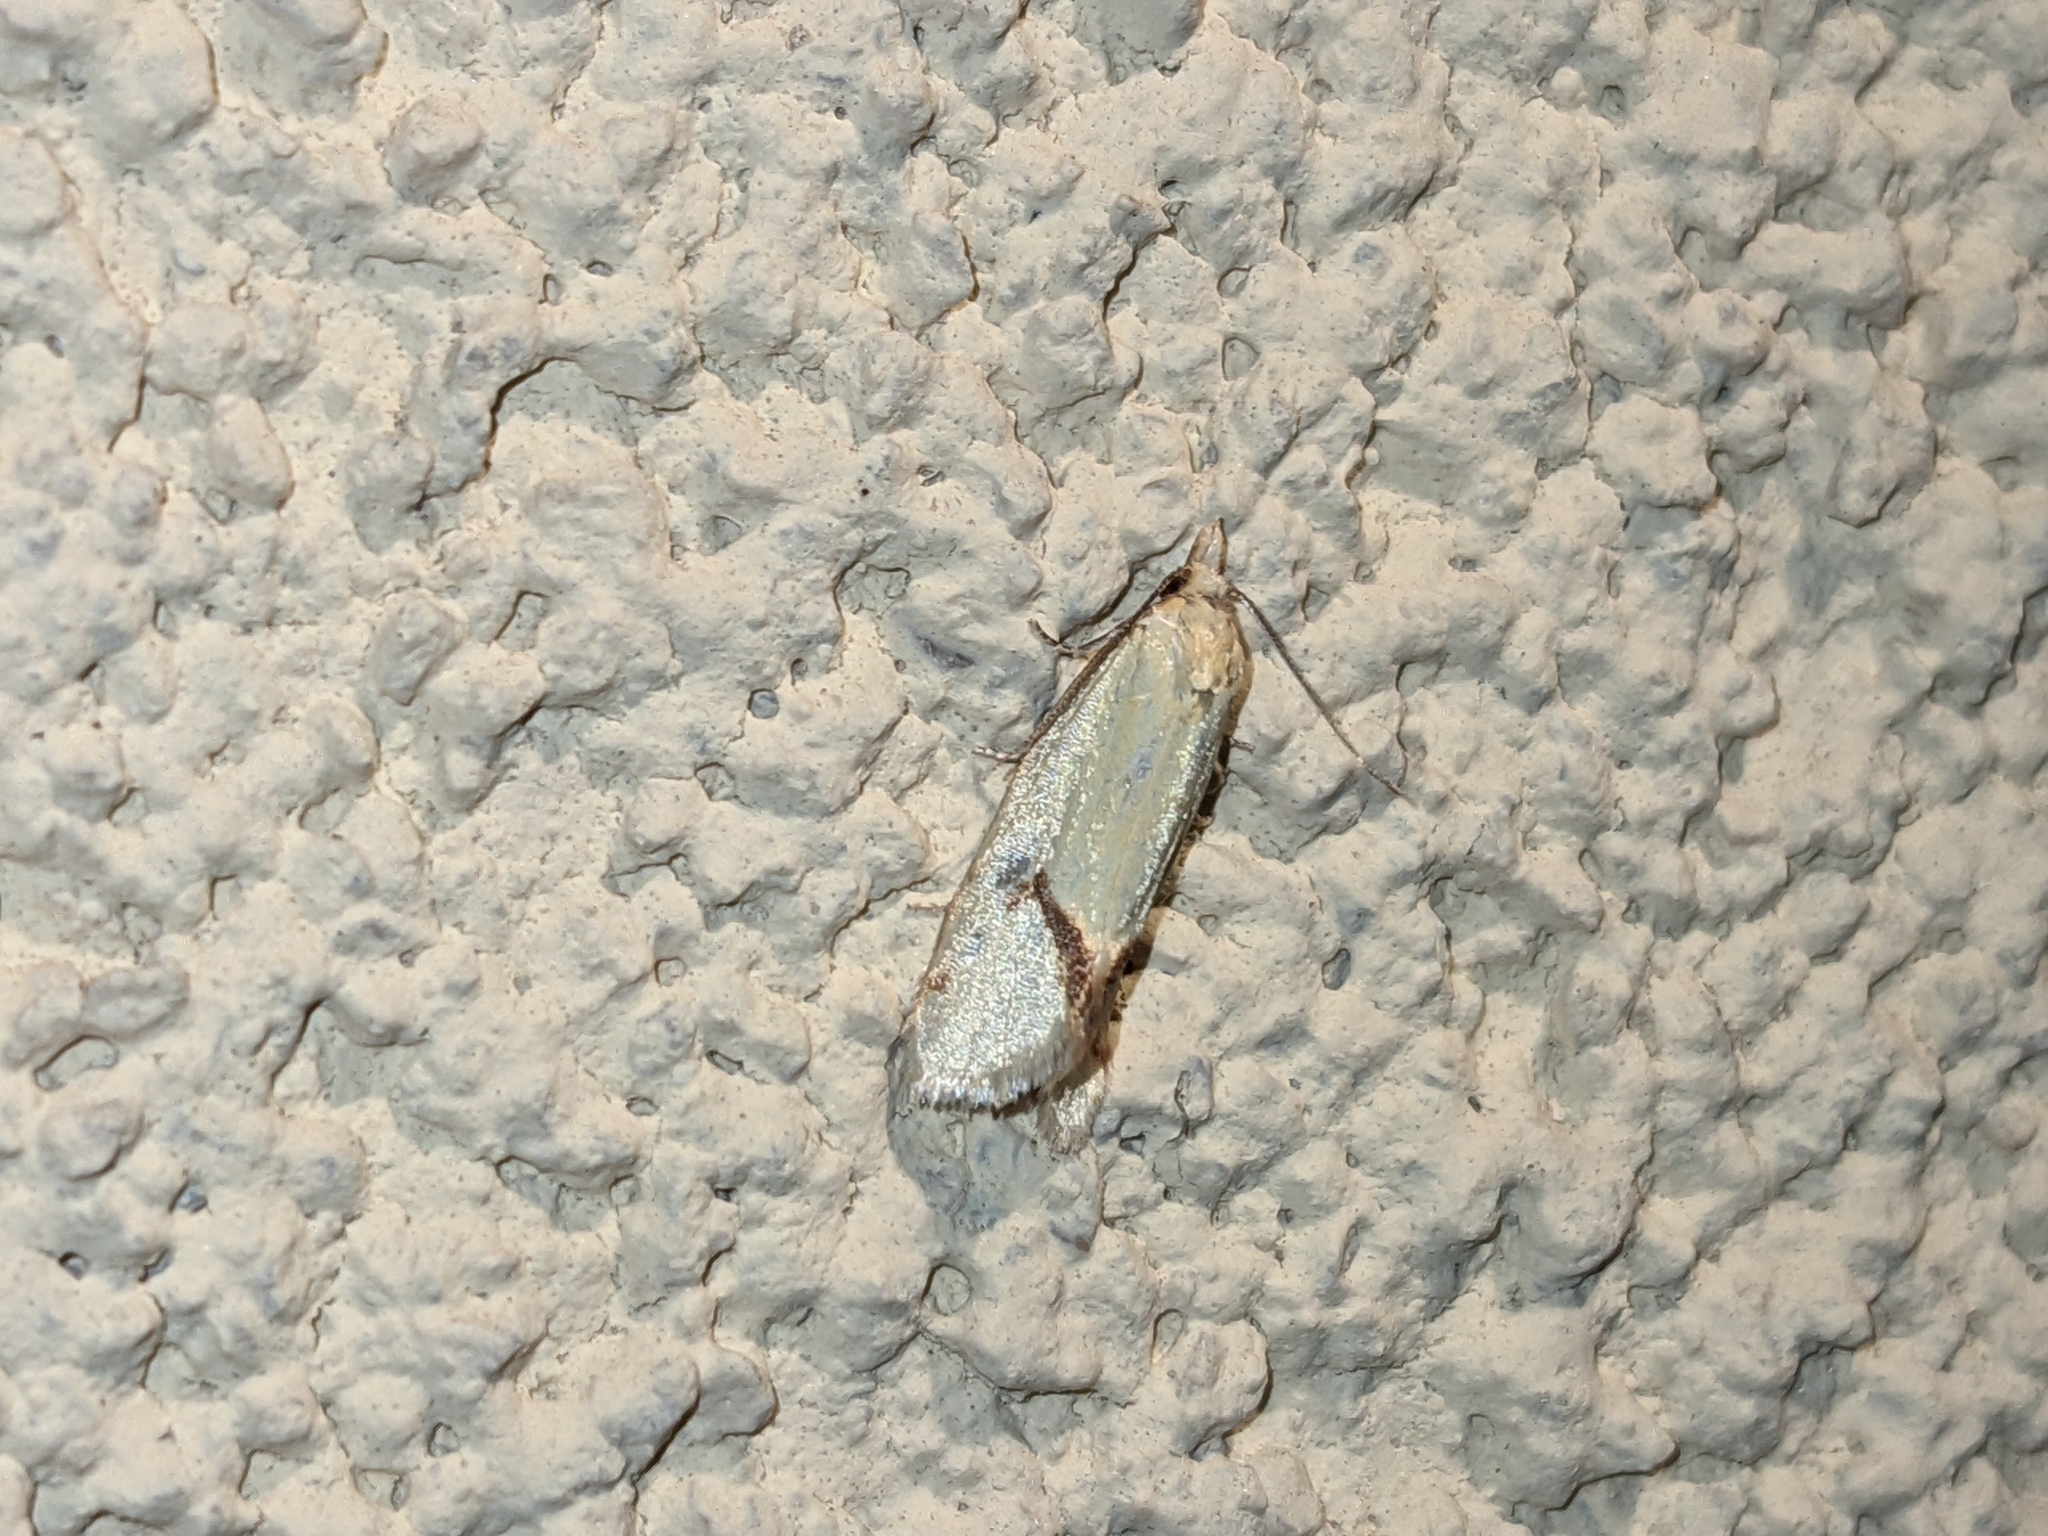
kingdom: Animalia
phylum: Arthropoda
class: Insecta
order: Lepidoptera
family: Tortricidae
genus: Agapeta
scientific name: Agapeta hamana
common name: Common yellow conch
